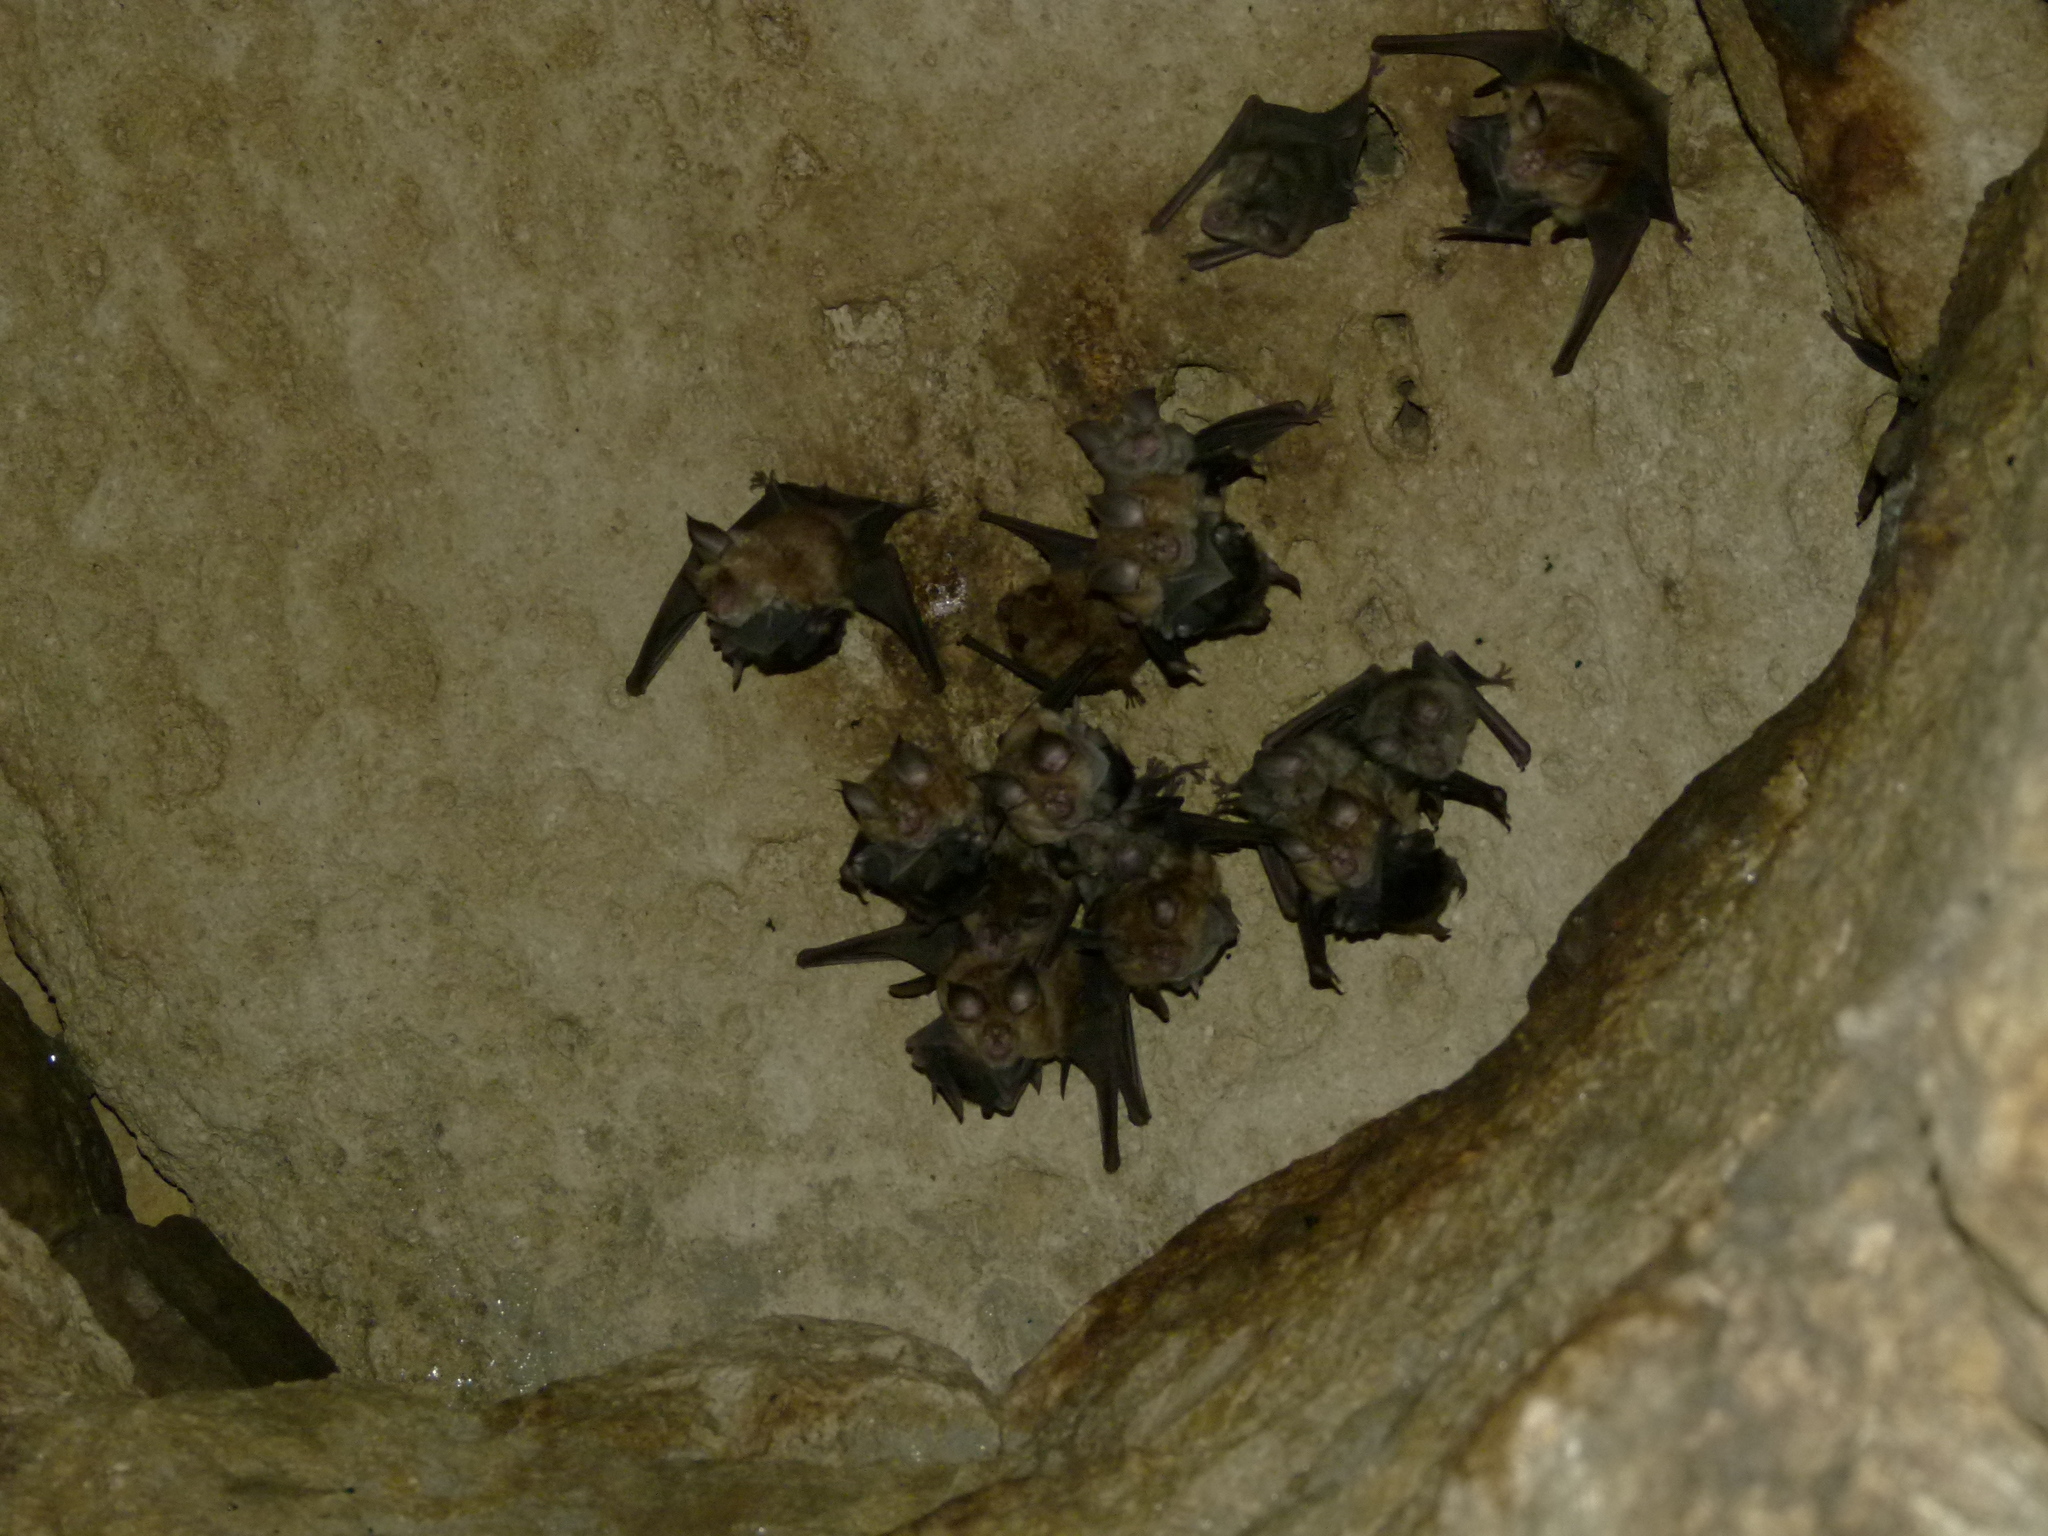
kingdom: Animalia
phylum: Chordata
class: Mammalia
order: Chiroptera
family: Rhinolophidae
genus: Rhinolophus
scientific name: Rhinolophus ferrumequinum
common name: Greater horseshoe bat
